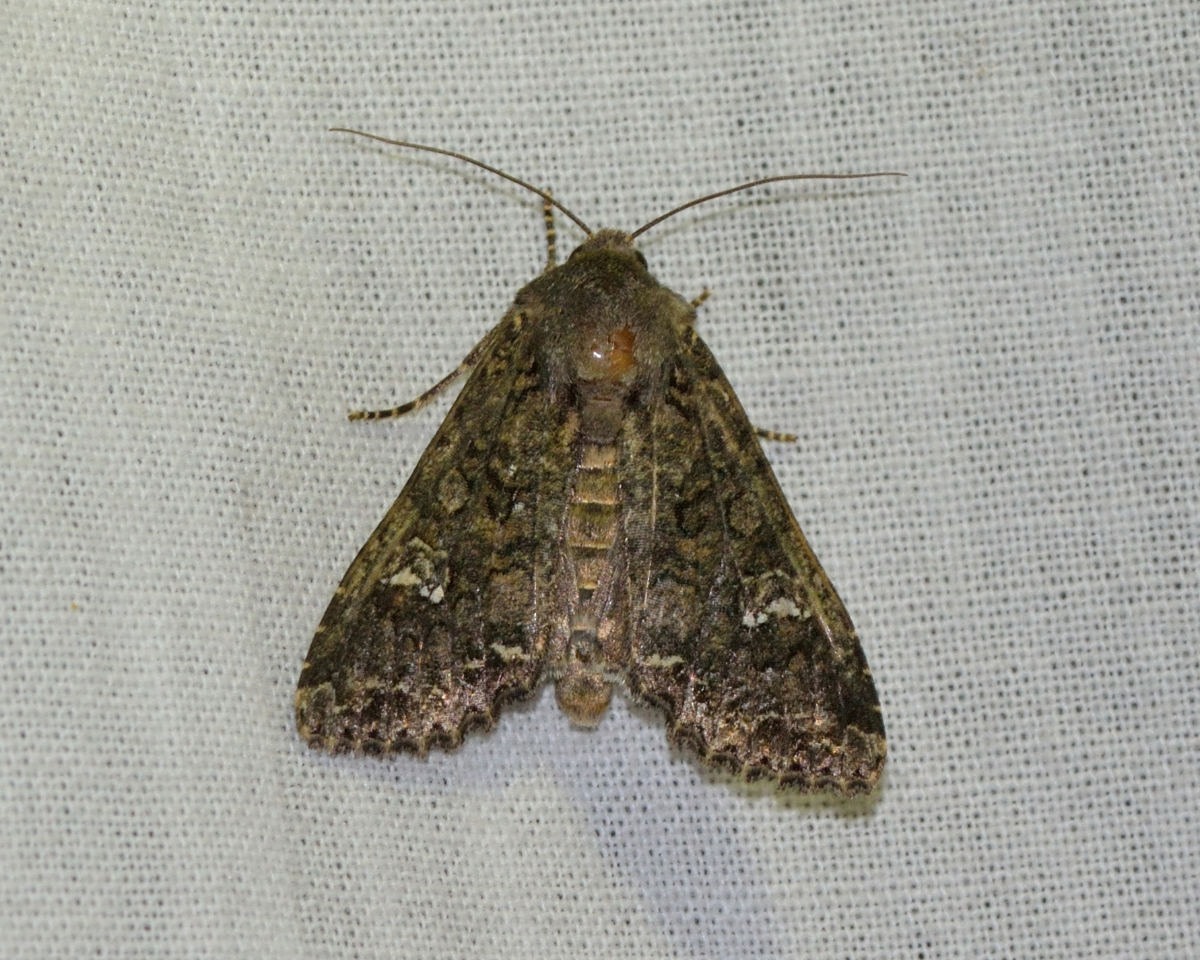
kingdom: Animalia
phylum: Arthropoda
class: Insecta
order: Lepidoptera
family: Noctuidae
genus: Mamestra
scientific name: Mamestra brassicae
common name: Cabbage moth
